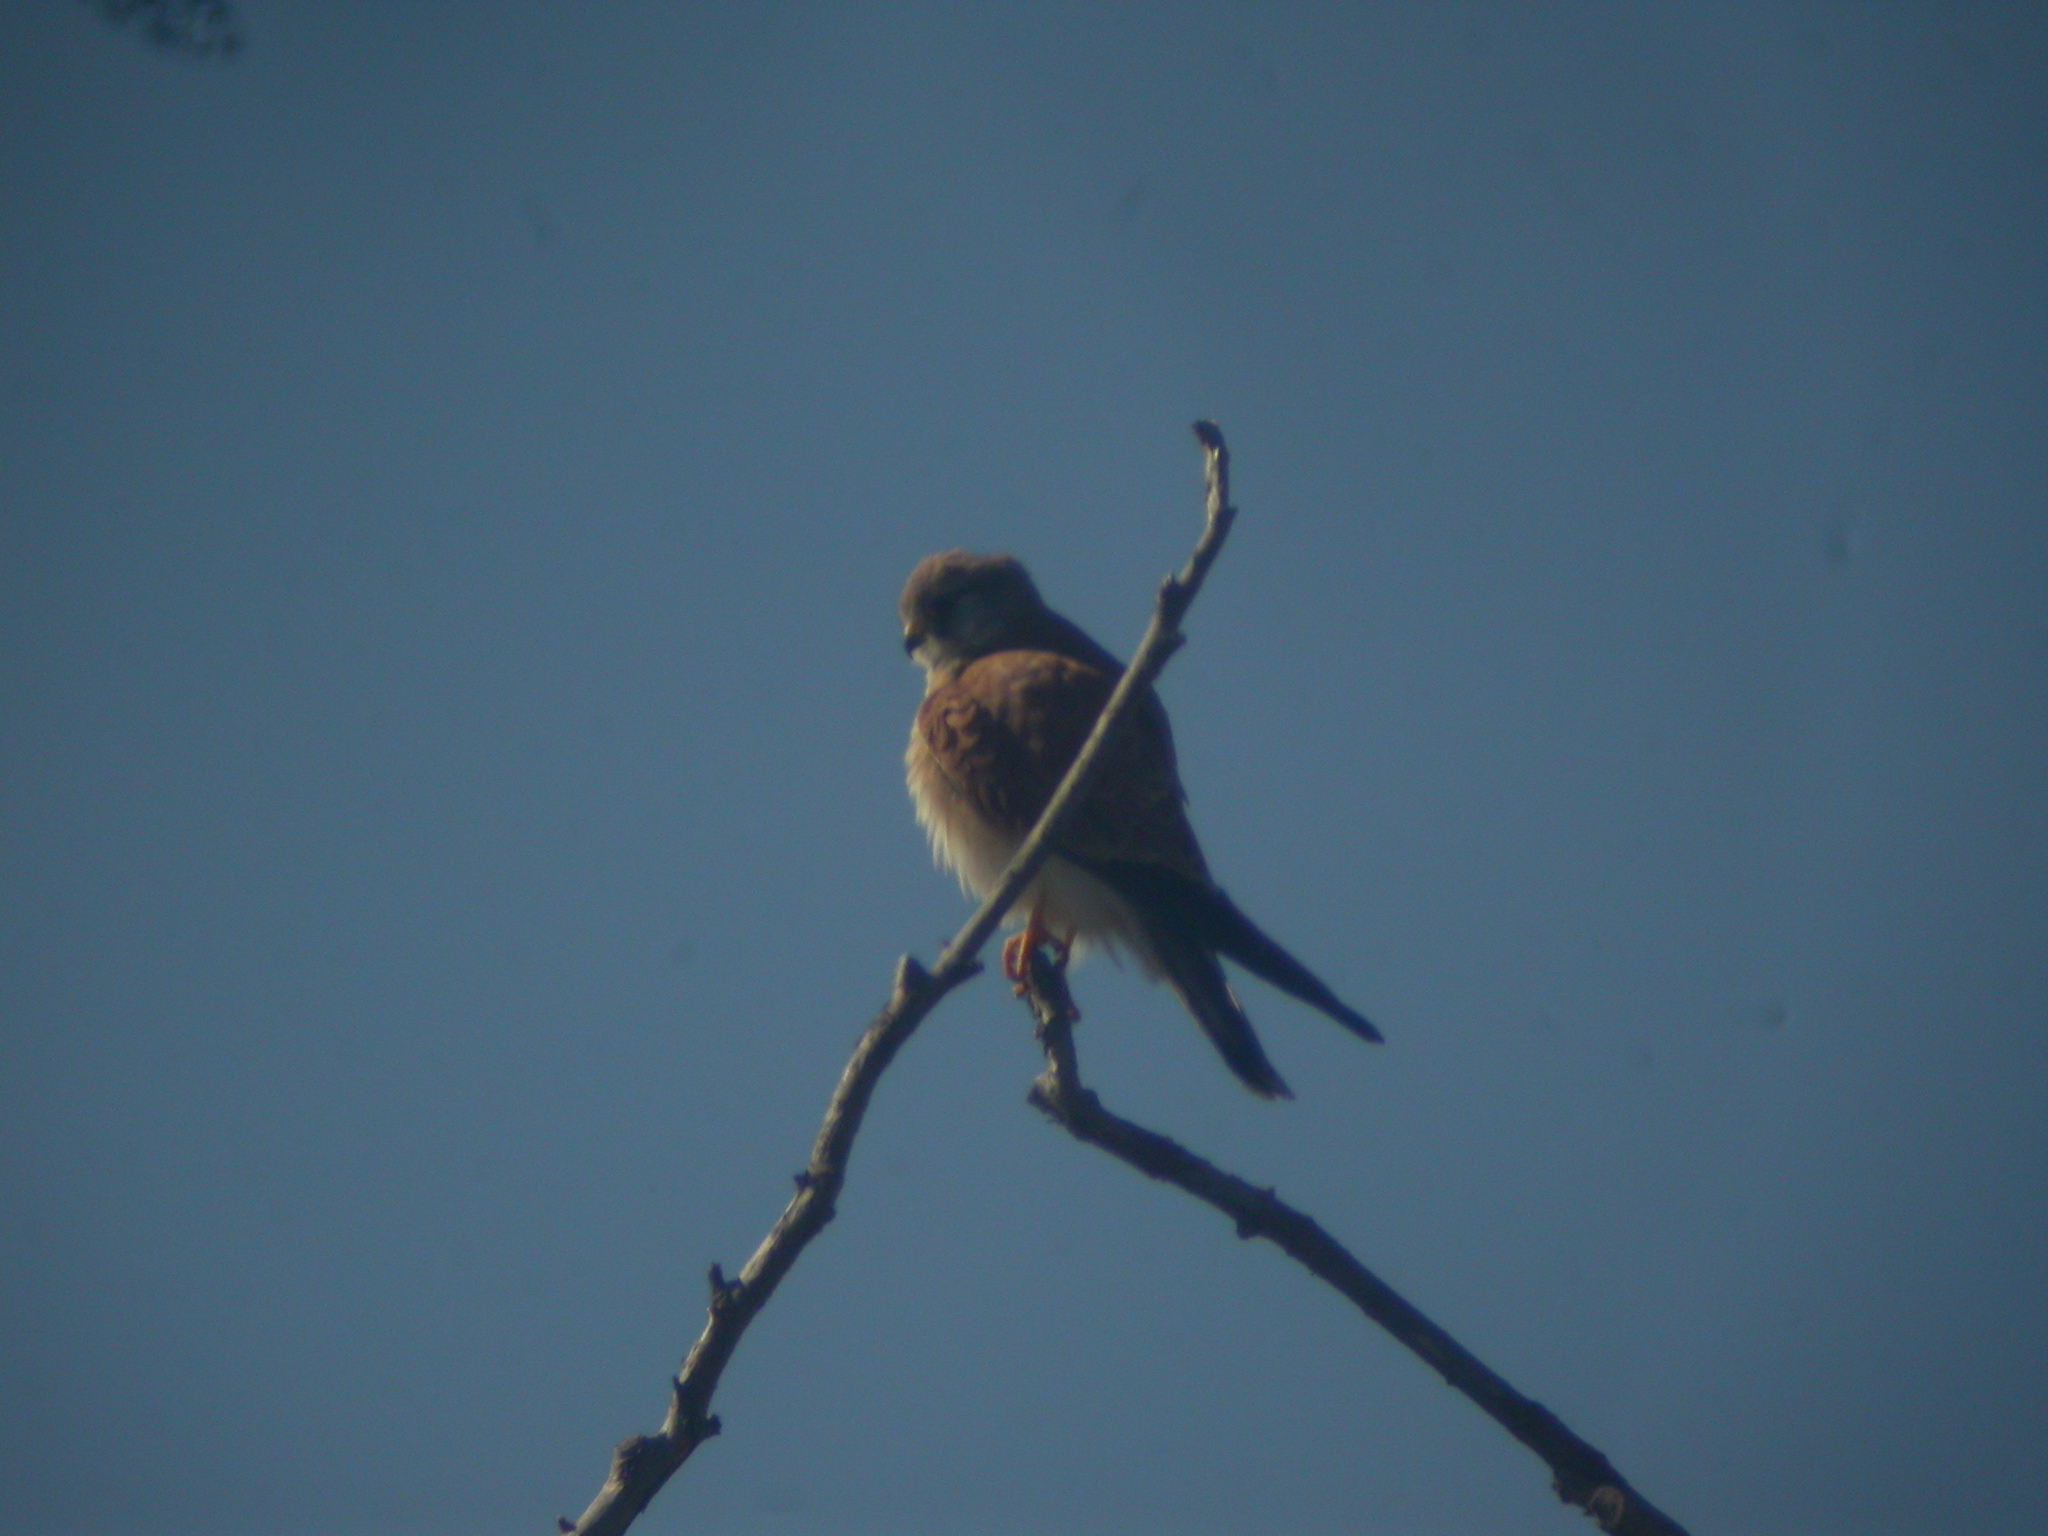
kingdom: Animalia
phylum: Chordata
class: Aves
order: Falconiformes
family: Falconidae
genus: Falco
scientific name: Falco cenchroides
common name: Nankeen kestrel
